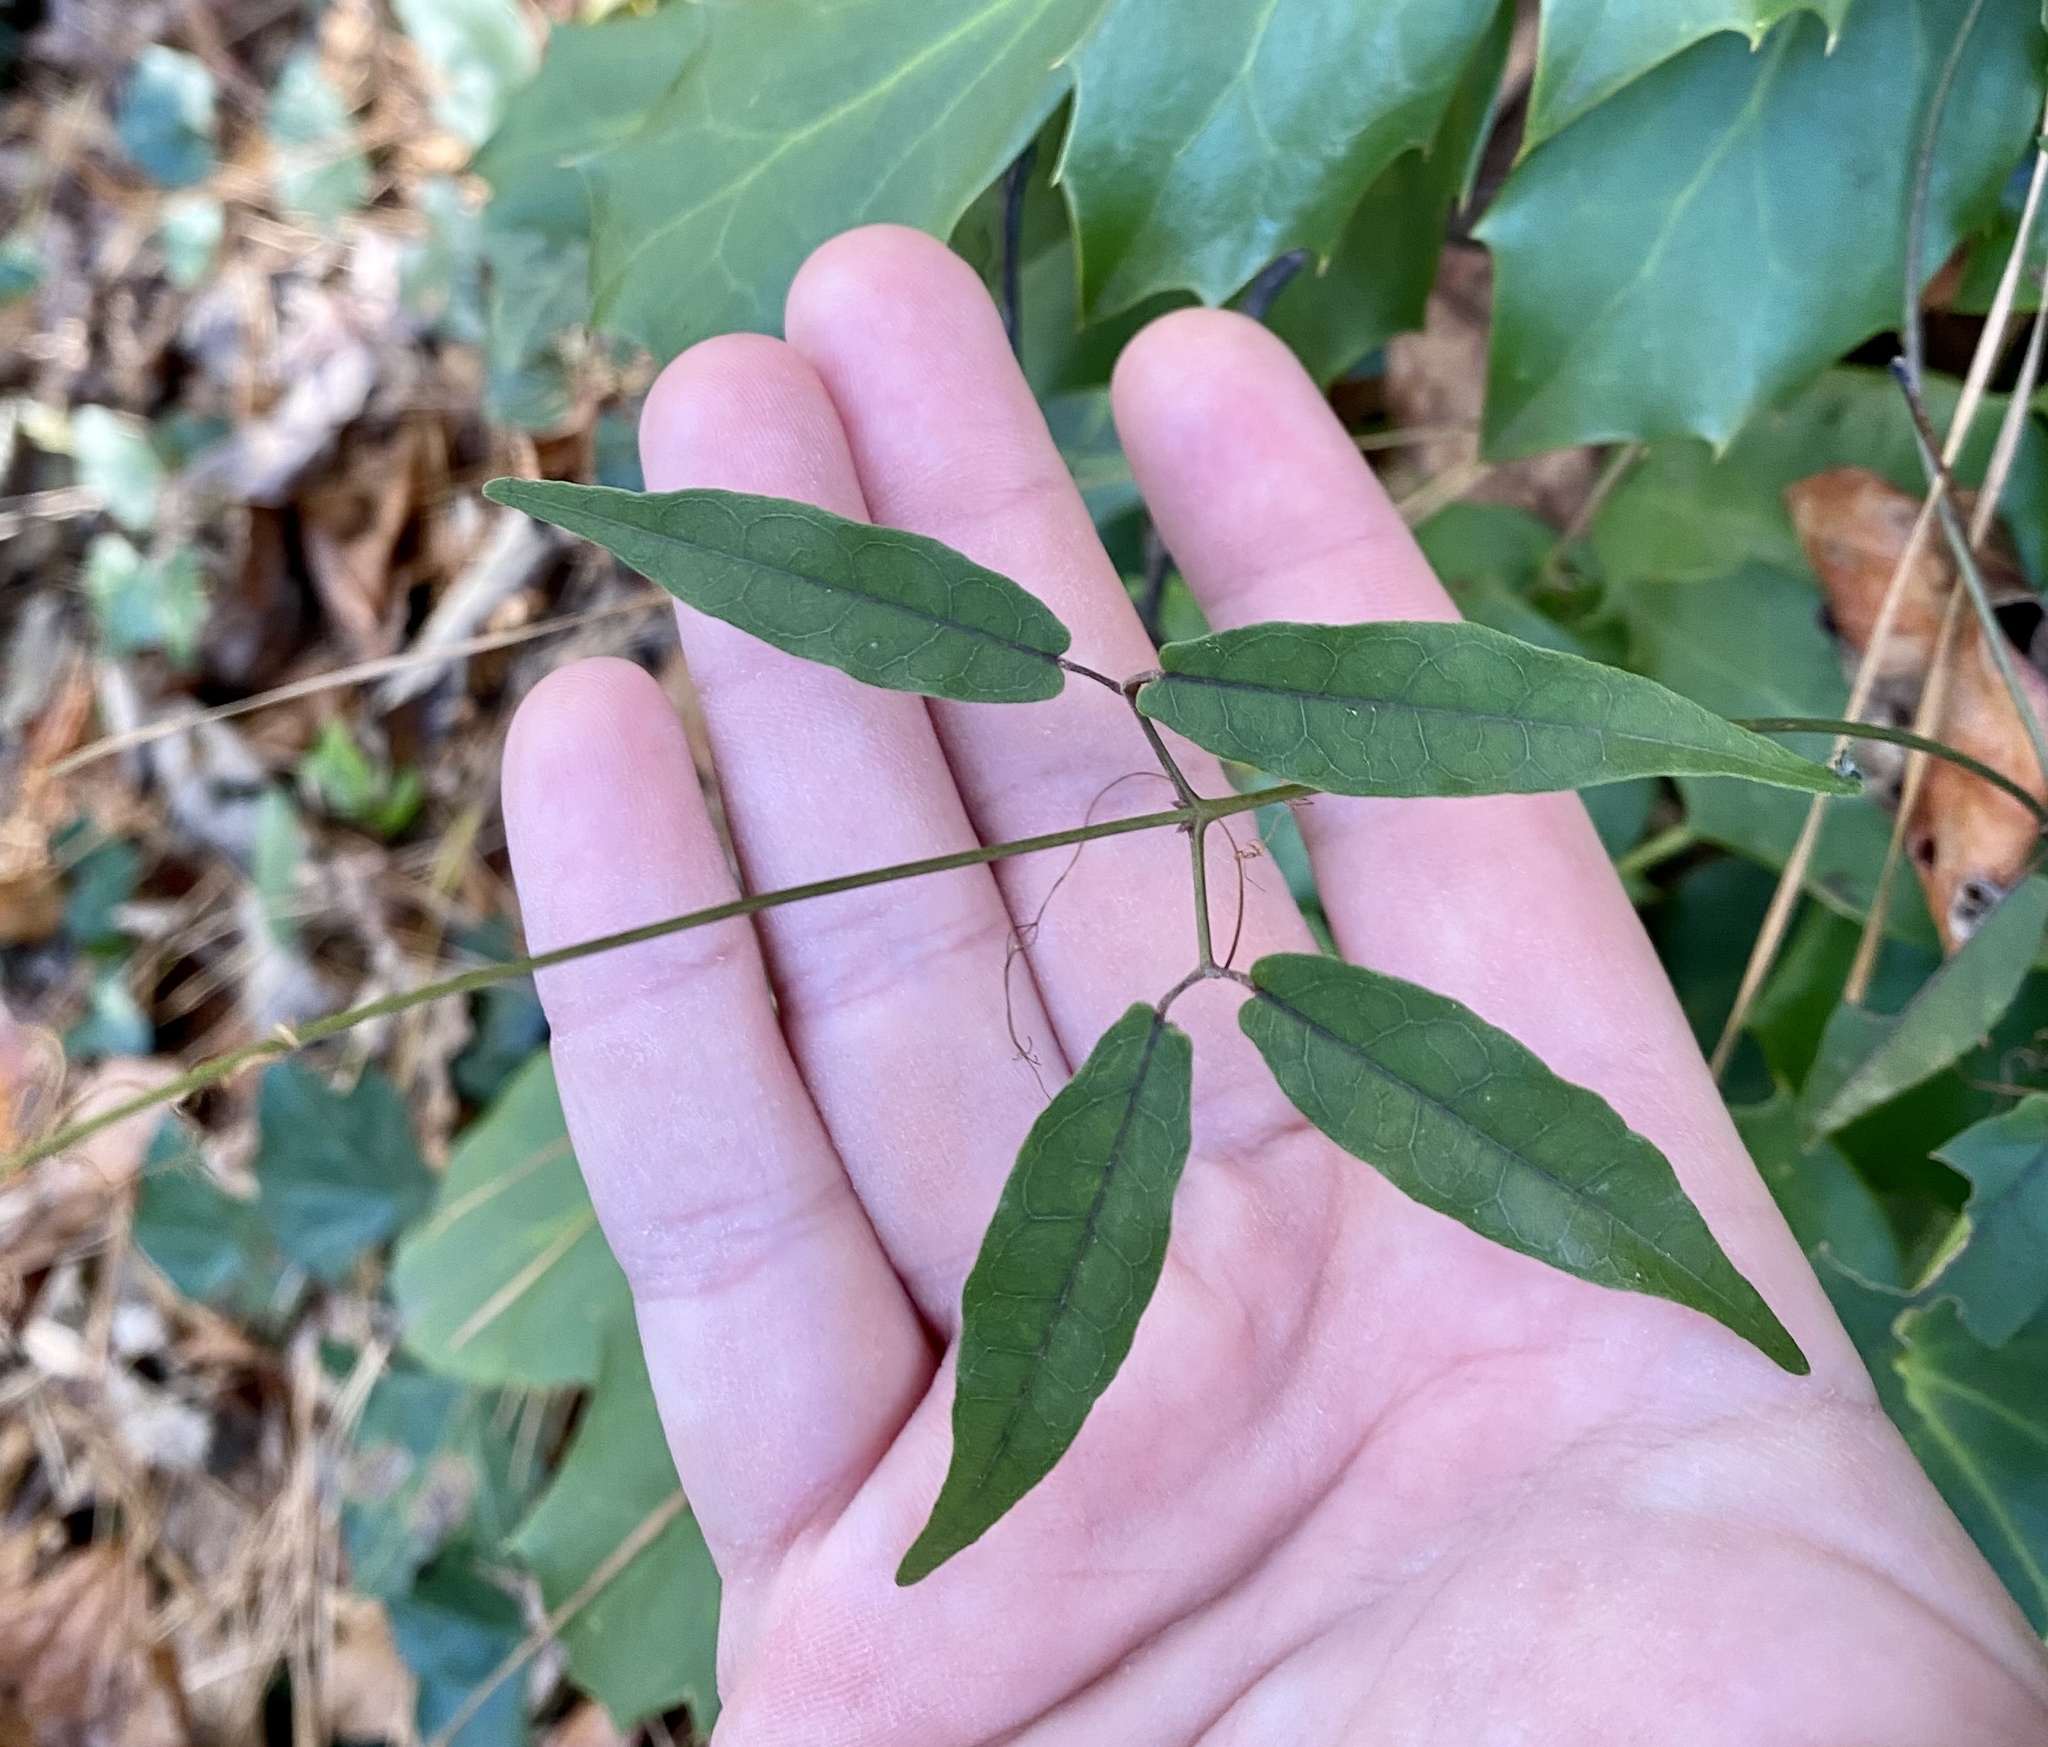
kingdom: Plantae
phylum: Tracheophyta
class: Magnoliopsida
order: Lamiales
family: Bignoniaceae
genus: Bignonia
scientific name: Bignonia capreolata
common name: Crossvine
